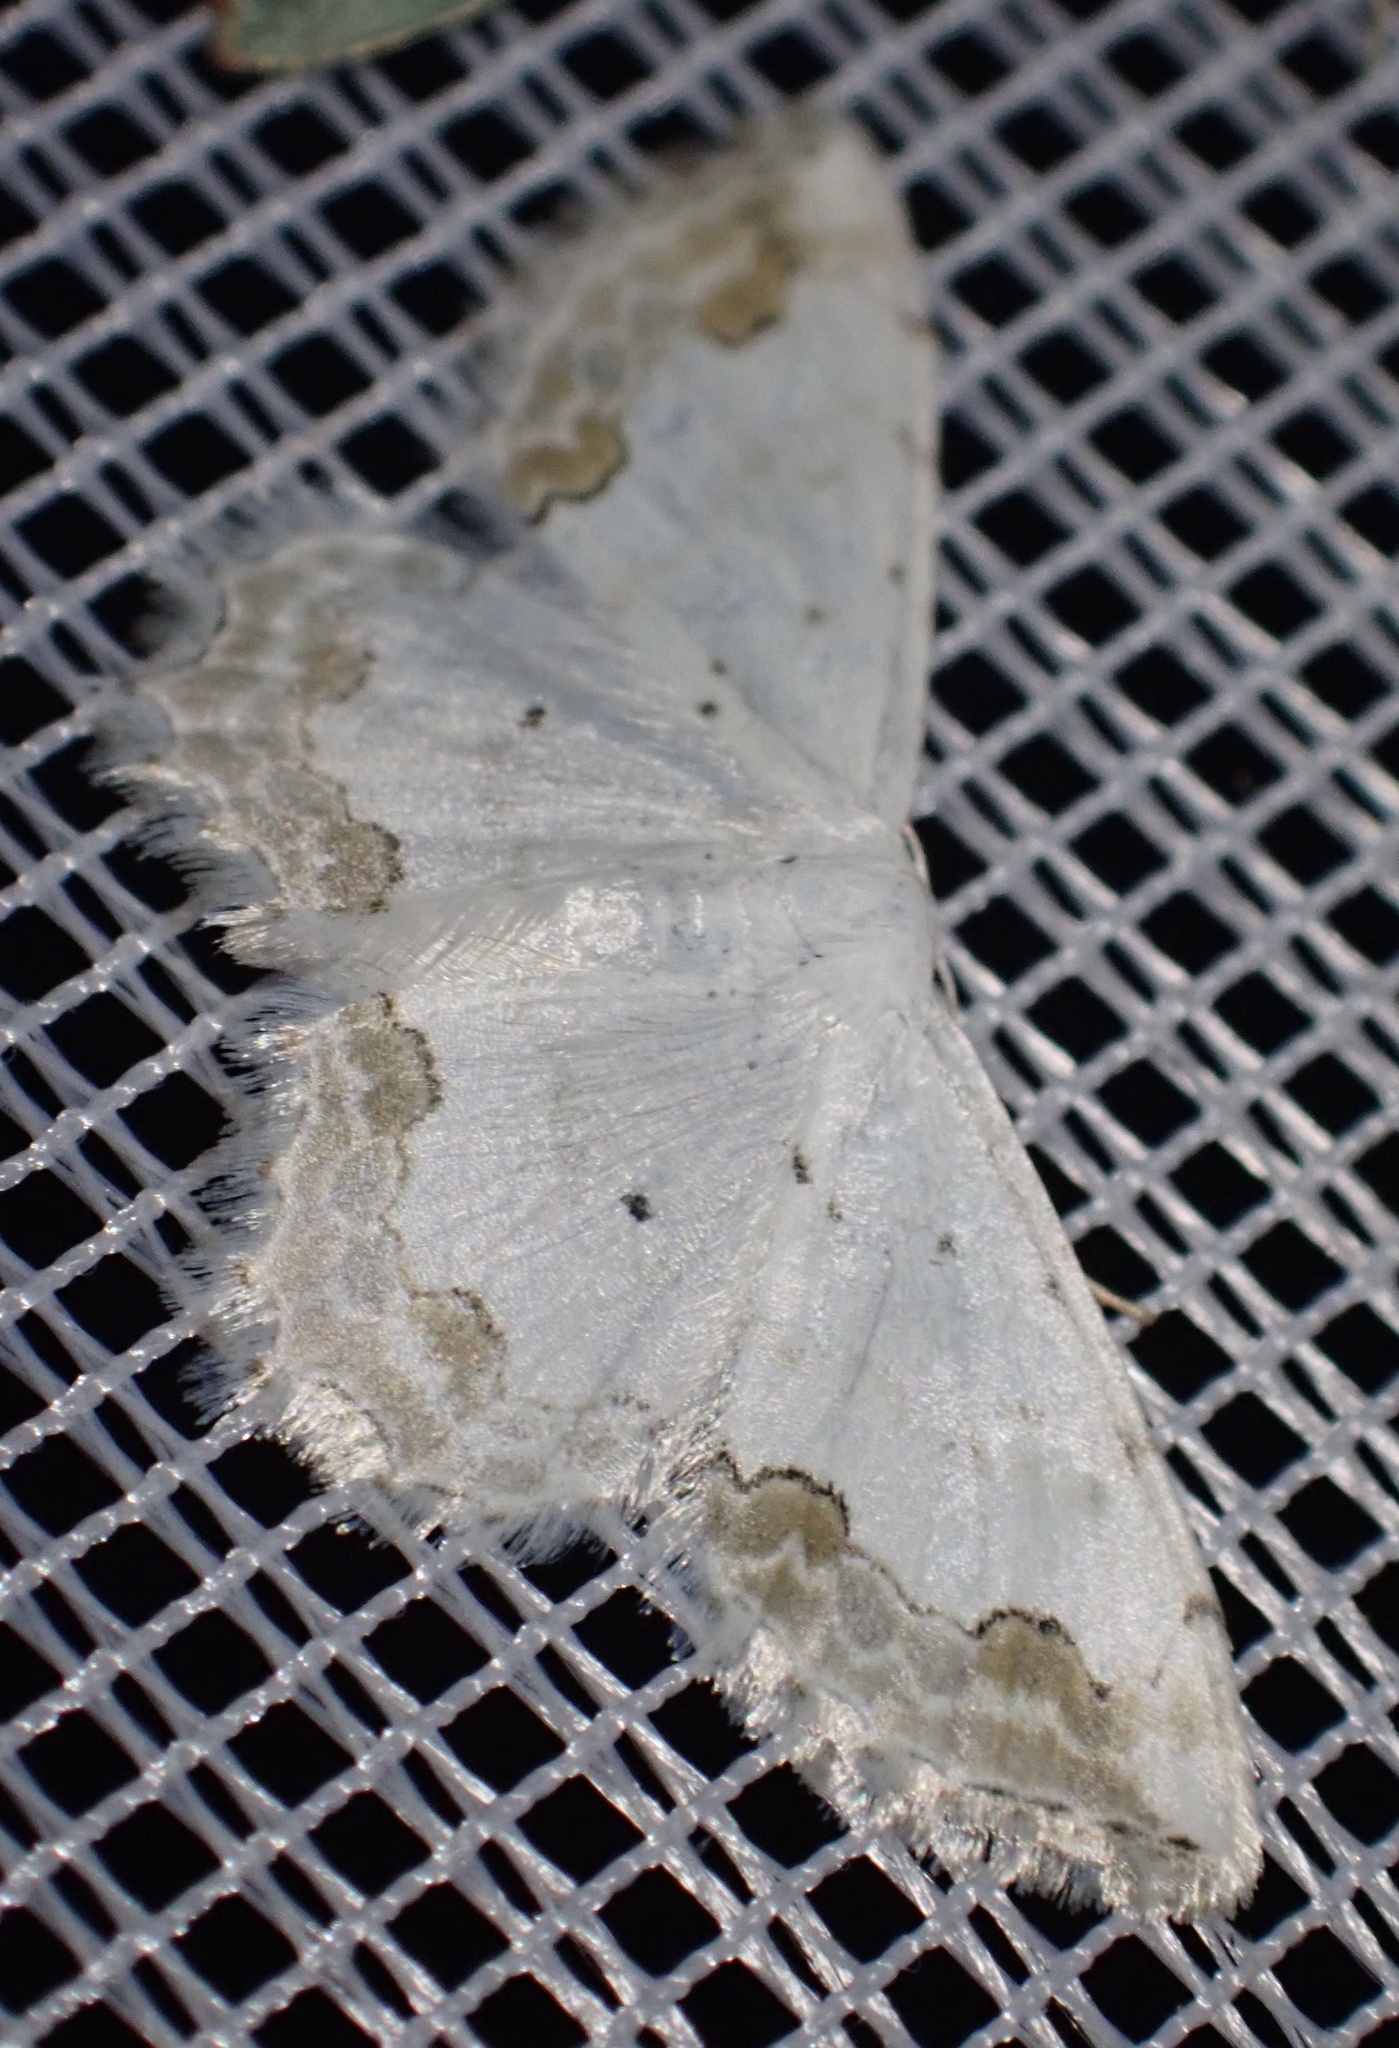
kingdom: Animalia
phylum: Arthropoda
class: Insecta
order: Lepidoptera
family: Geometridae
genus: Scopula
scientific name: Scopula ornata
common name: Lace border
